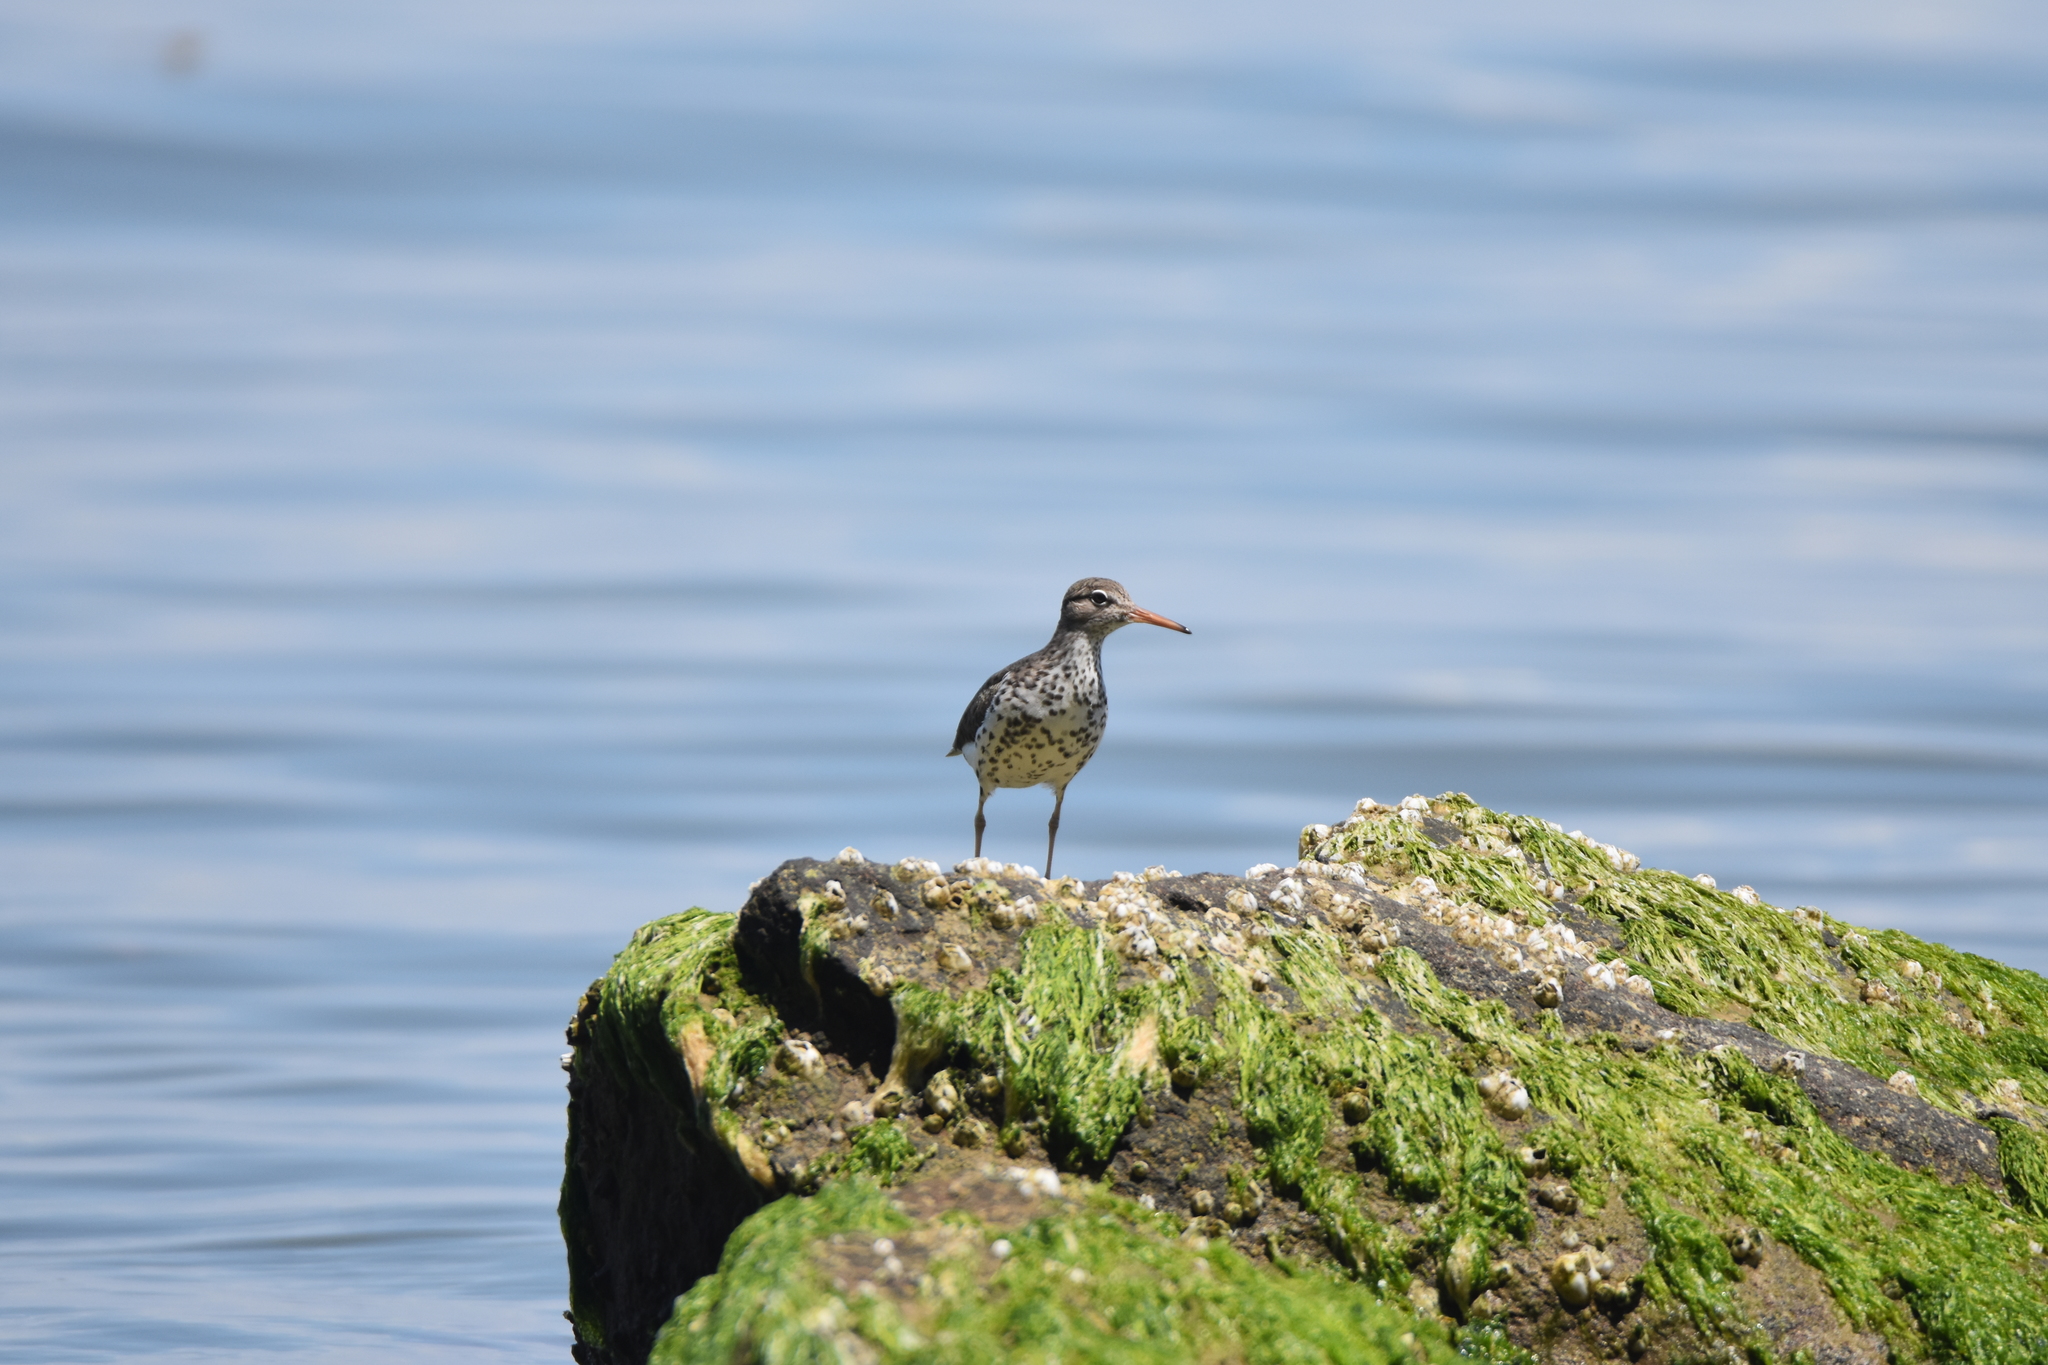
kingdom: Animalia
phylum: Chordata
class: Aves
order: Charadriiformes
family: Scolopacidae
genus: Actitis
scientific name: Actitis macularius
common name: Spotted sandpiper
